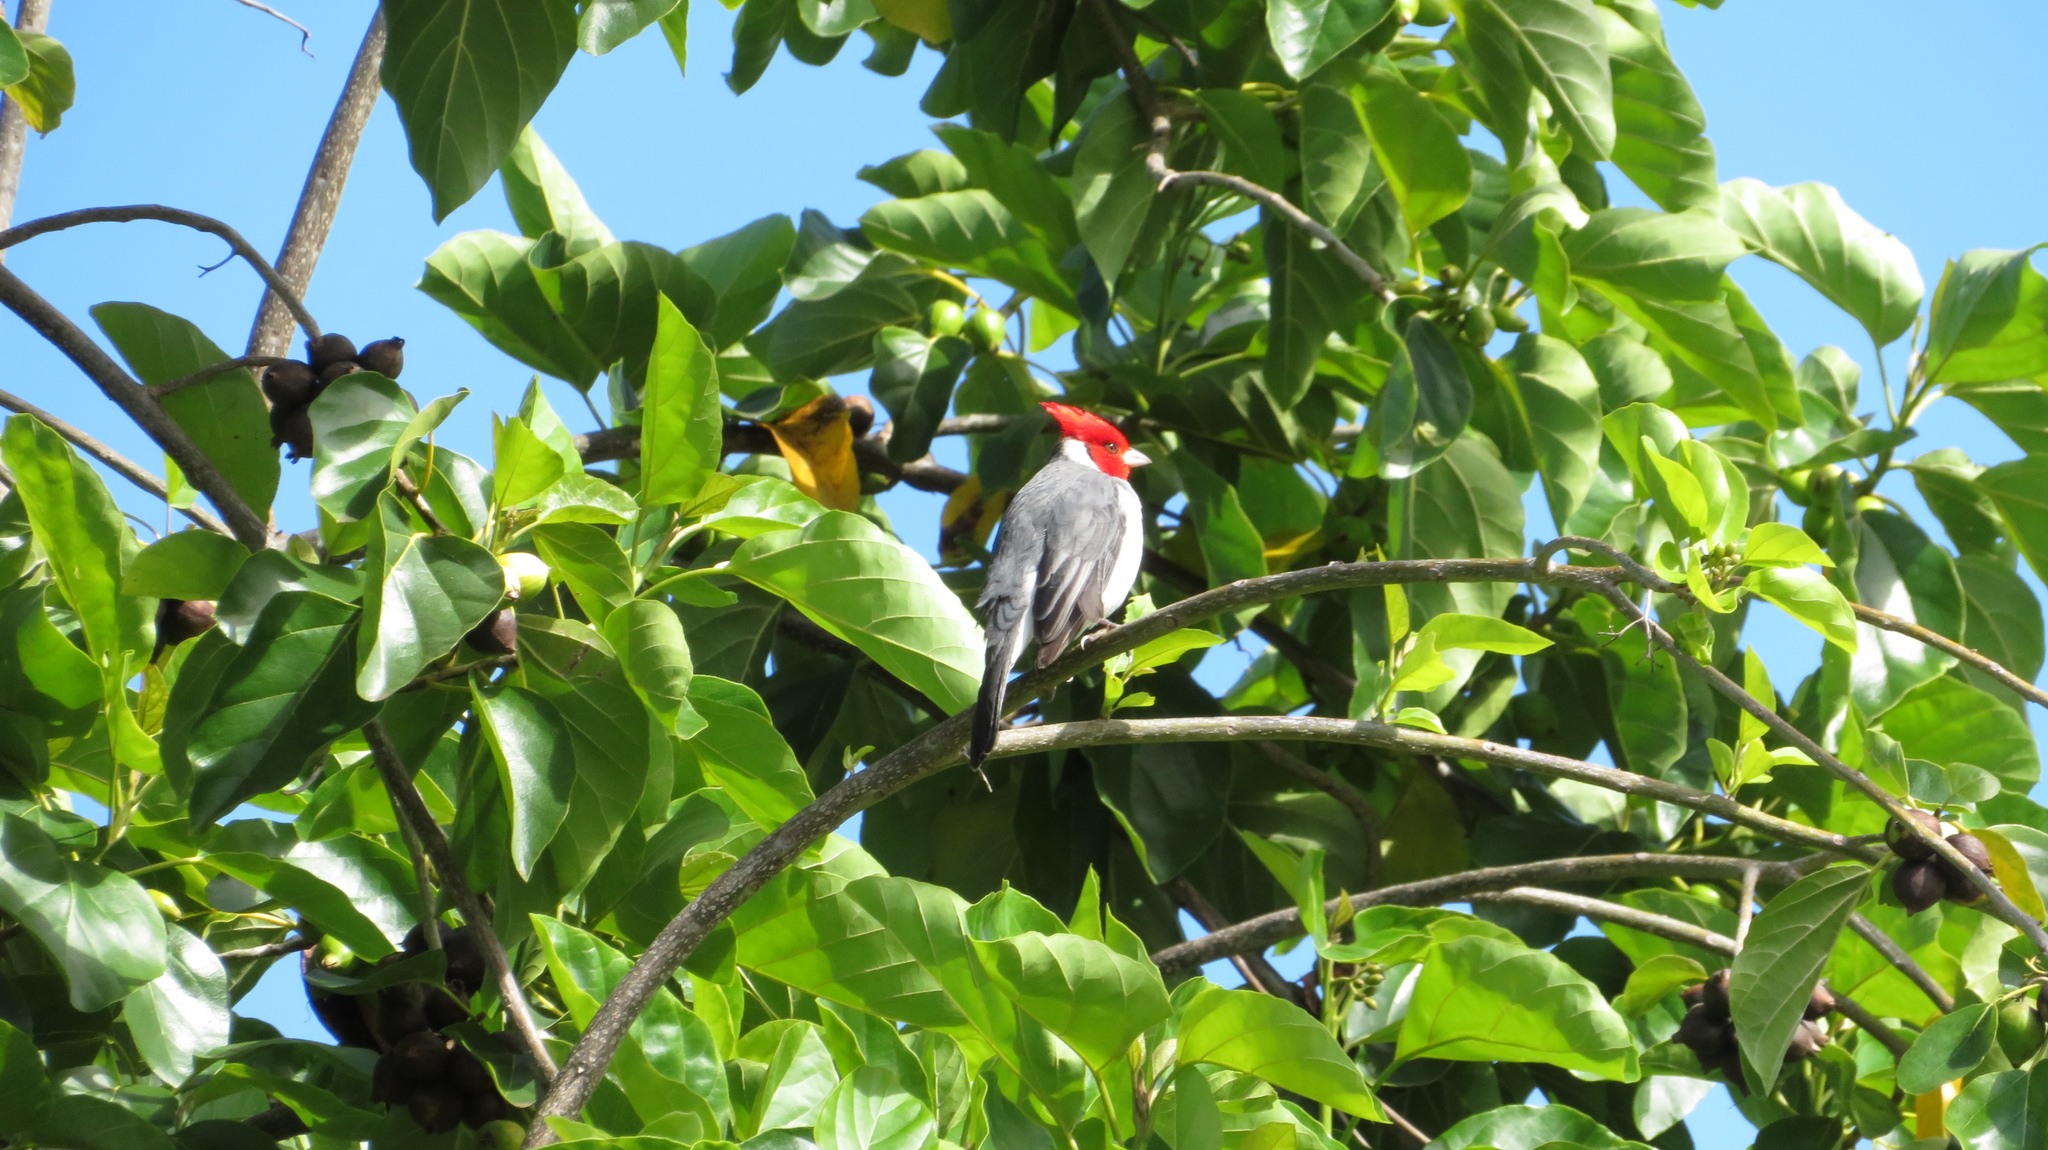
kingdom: Animalia
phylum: Chordata
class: Aves
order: Passeriformes
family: Thraupidae
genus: Paroaria
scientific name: Paroaria coronata
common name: Red-crested cardinal
